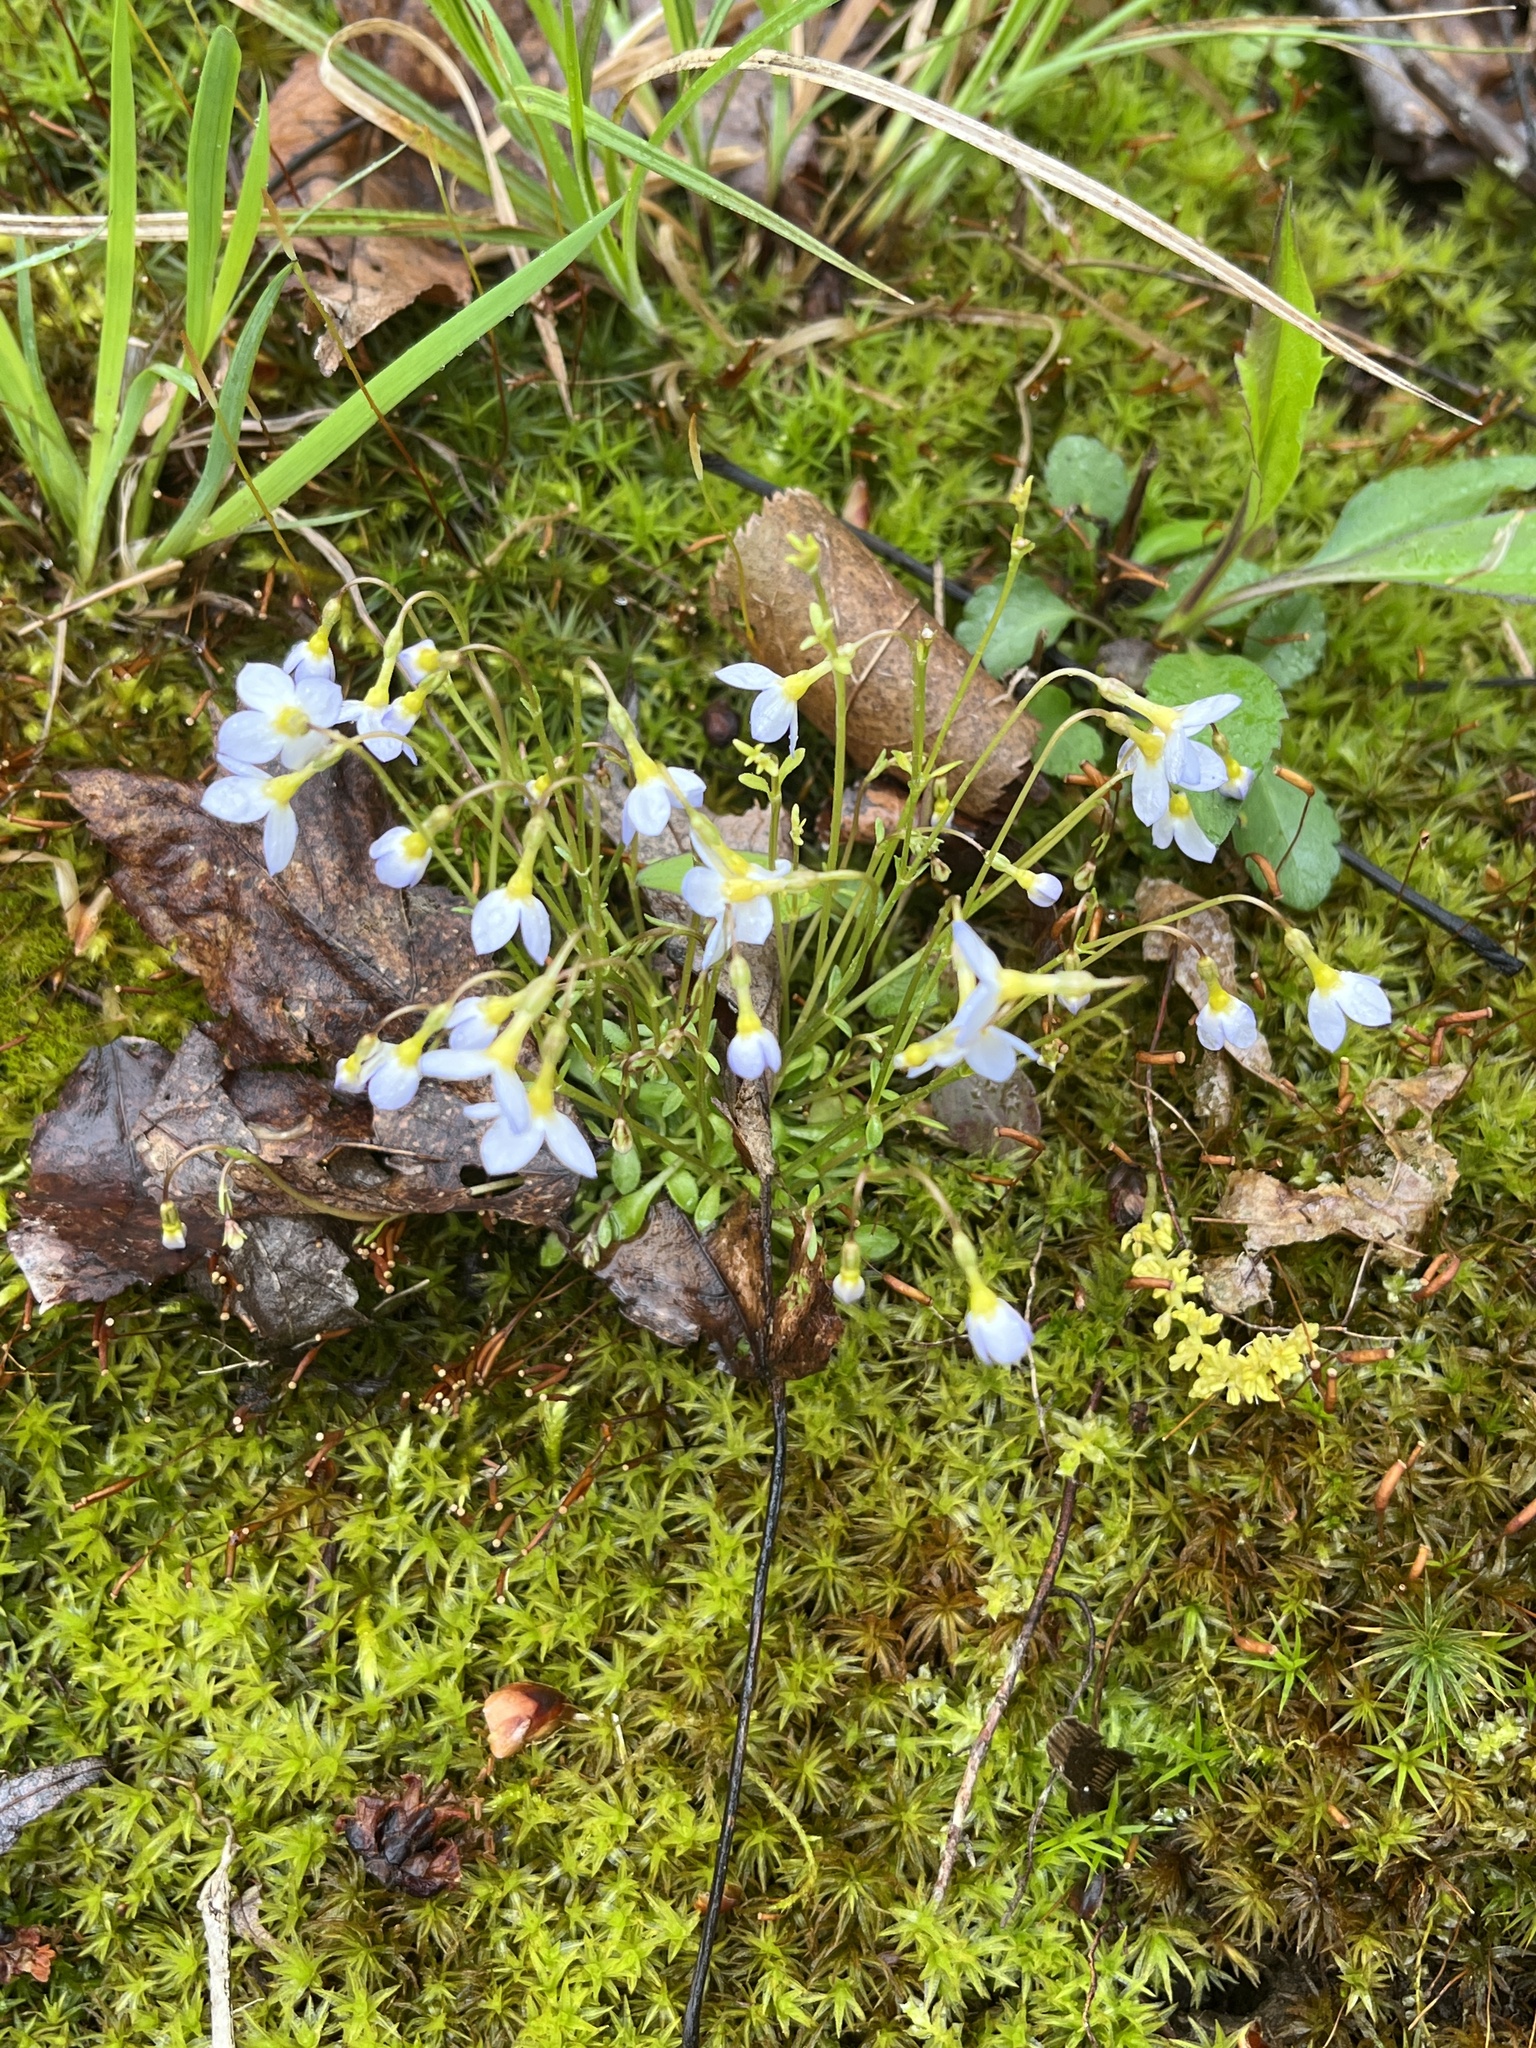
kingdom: Plantae
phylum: Tracheophyta
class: Magnoliopsida
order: Gentianales
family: Rubiaceae
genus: Houstonia
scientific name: Houstonia caerulea
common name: Bluets
